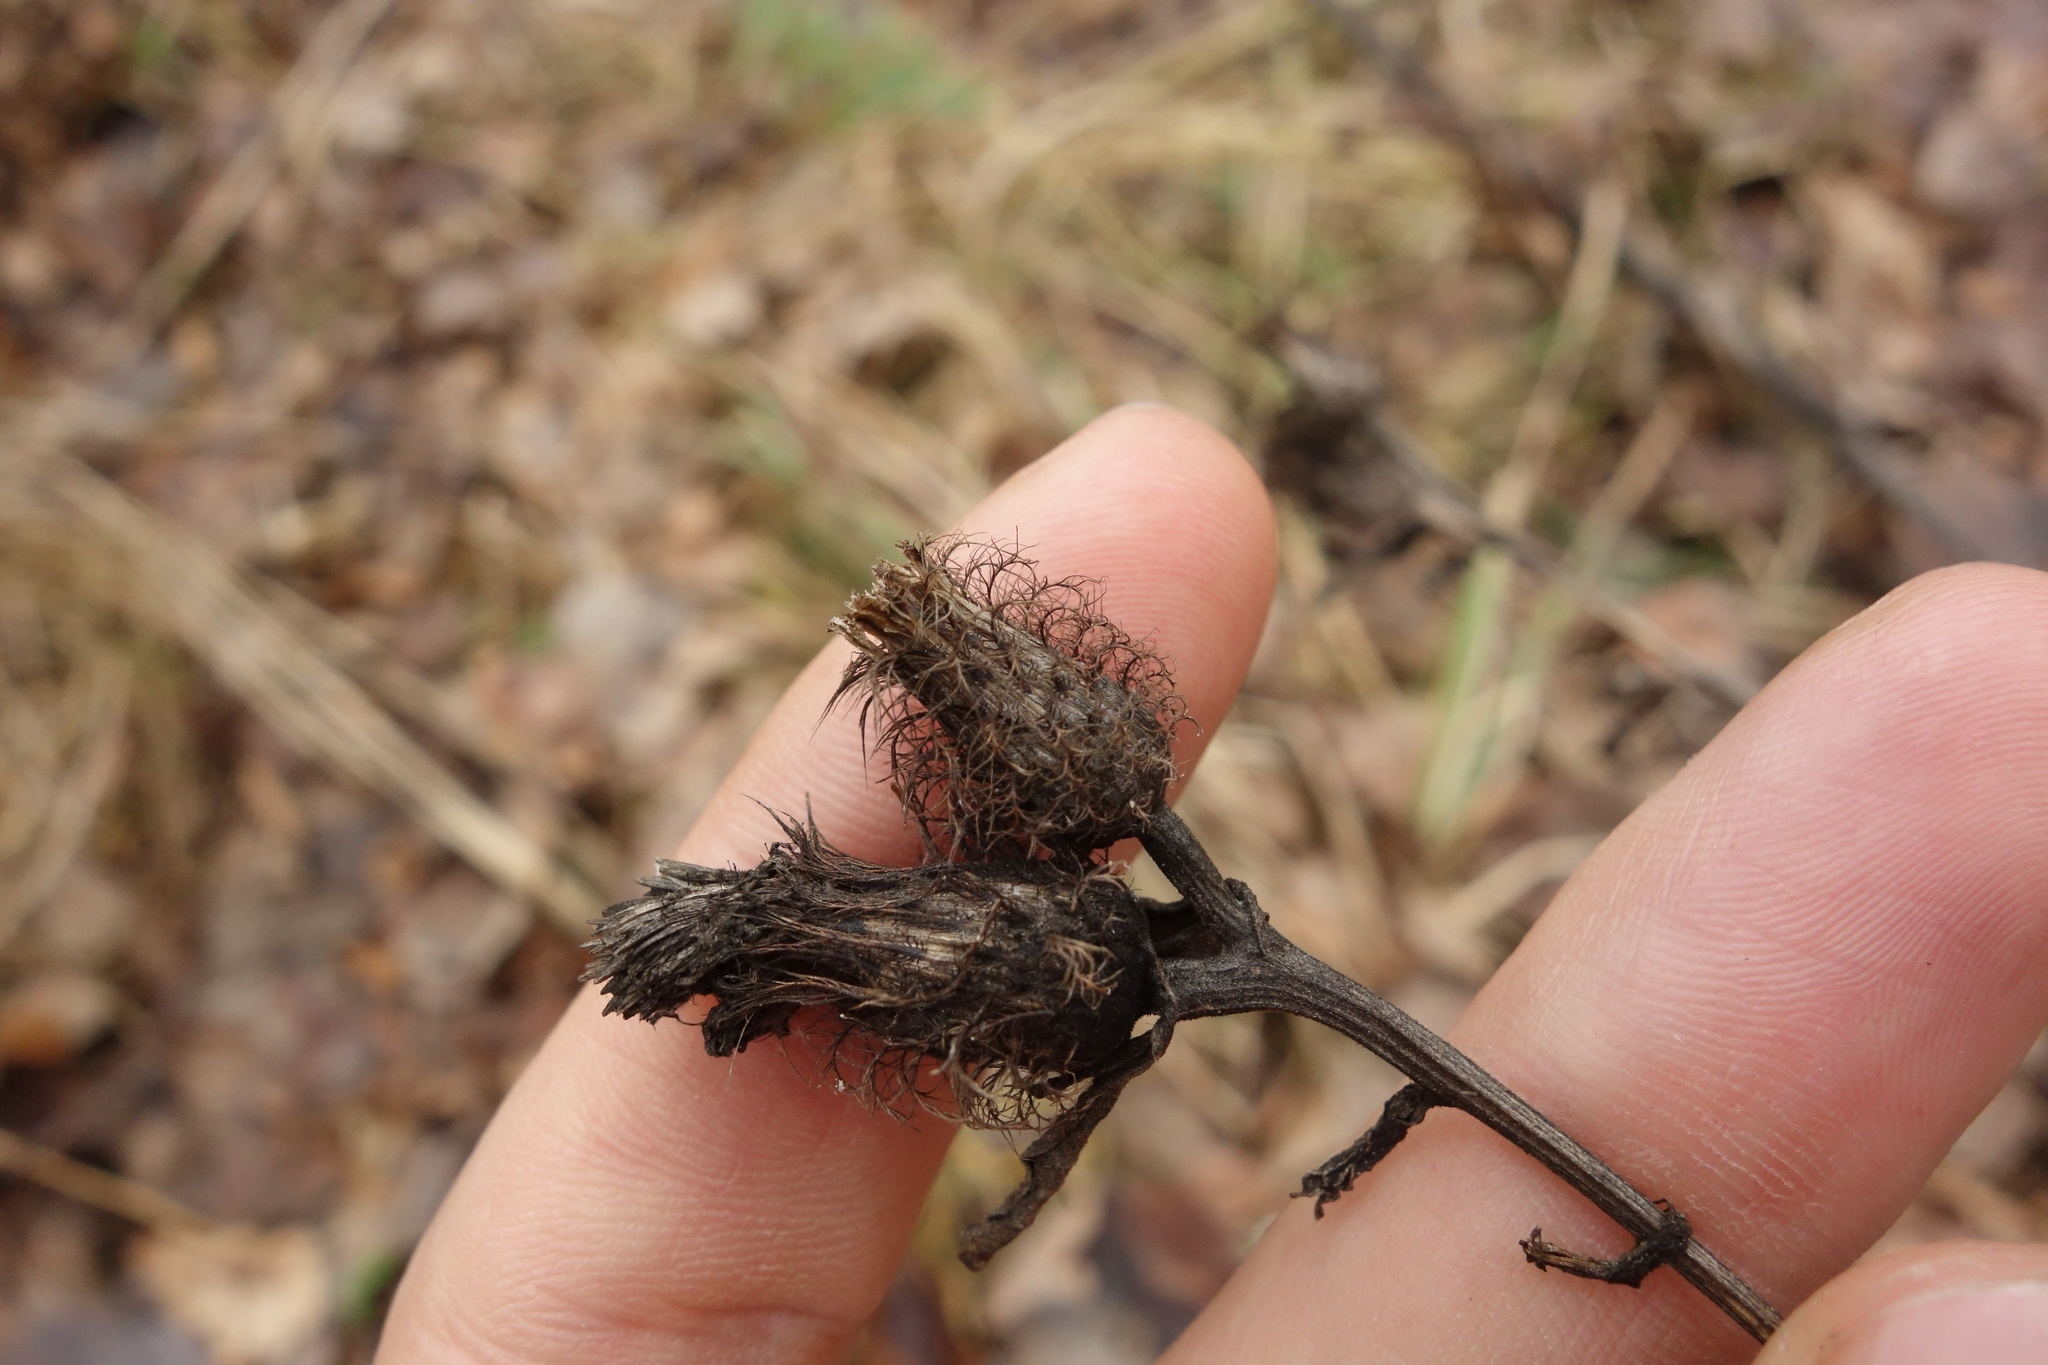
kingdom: Plantae
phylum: Tracheophyta
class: Magnoliopsida
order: Asterales
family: Asteraceae
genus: Centaurea
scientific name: Centaurea pseudophrygia
